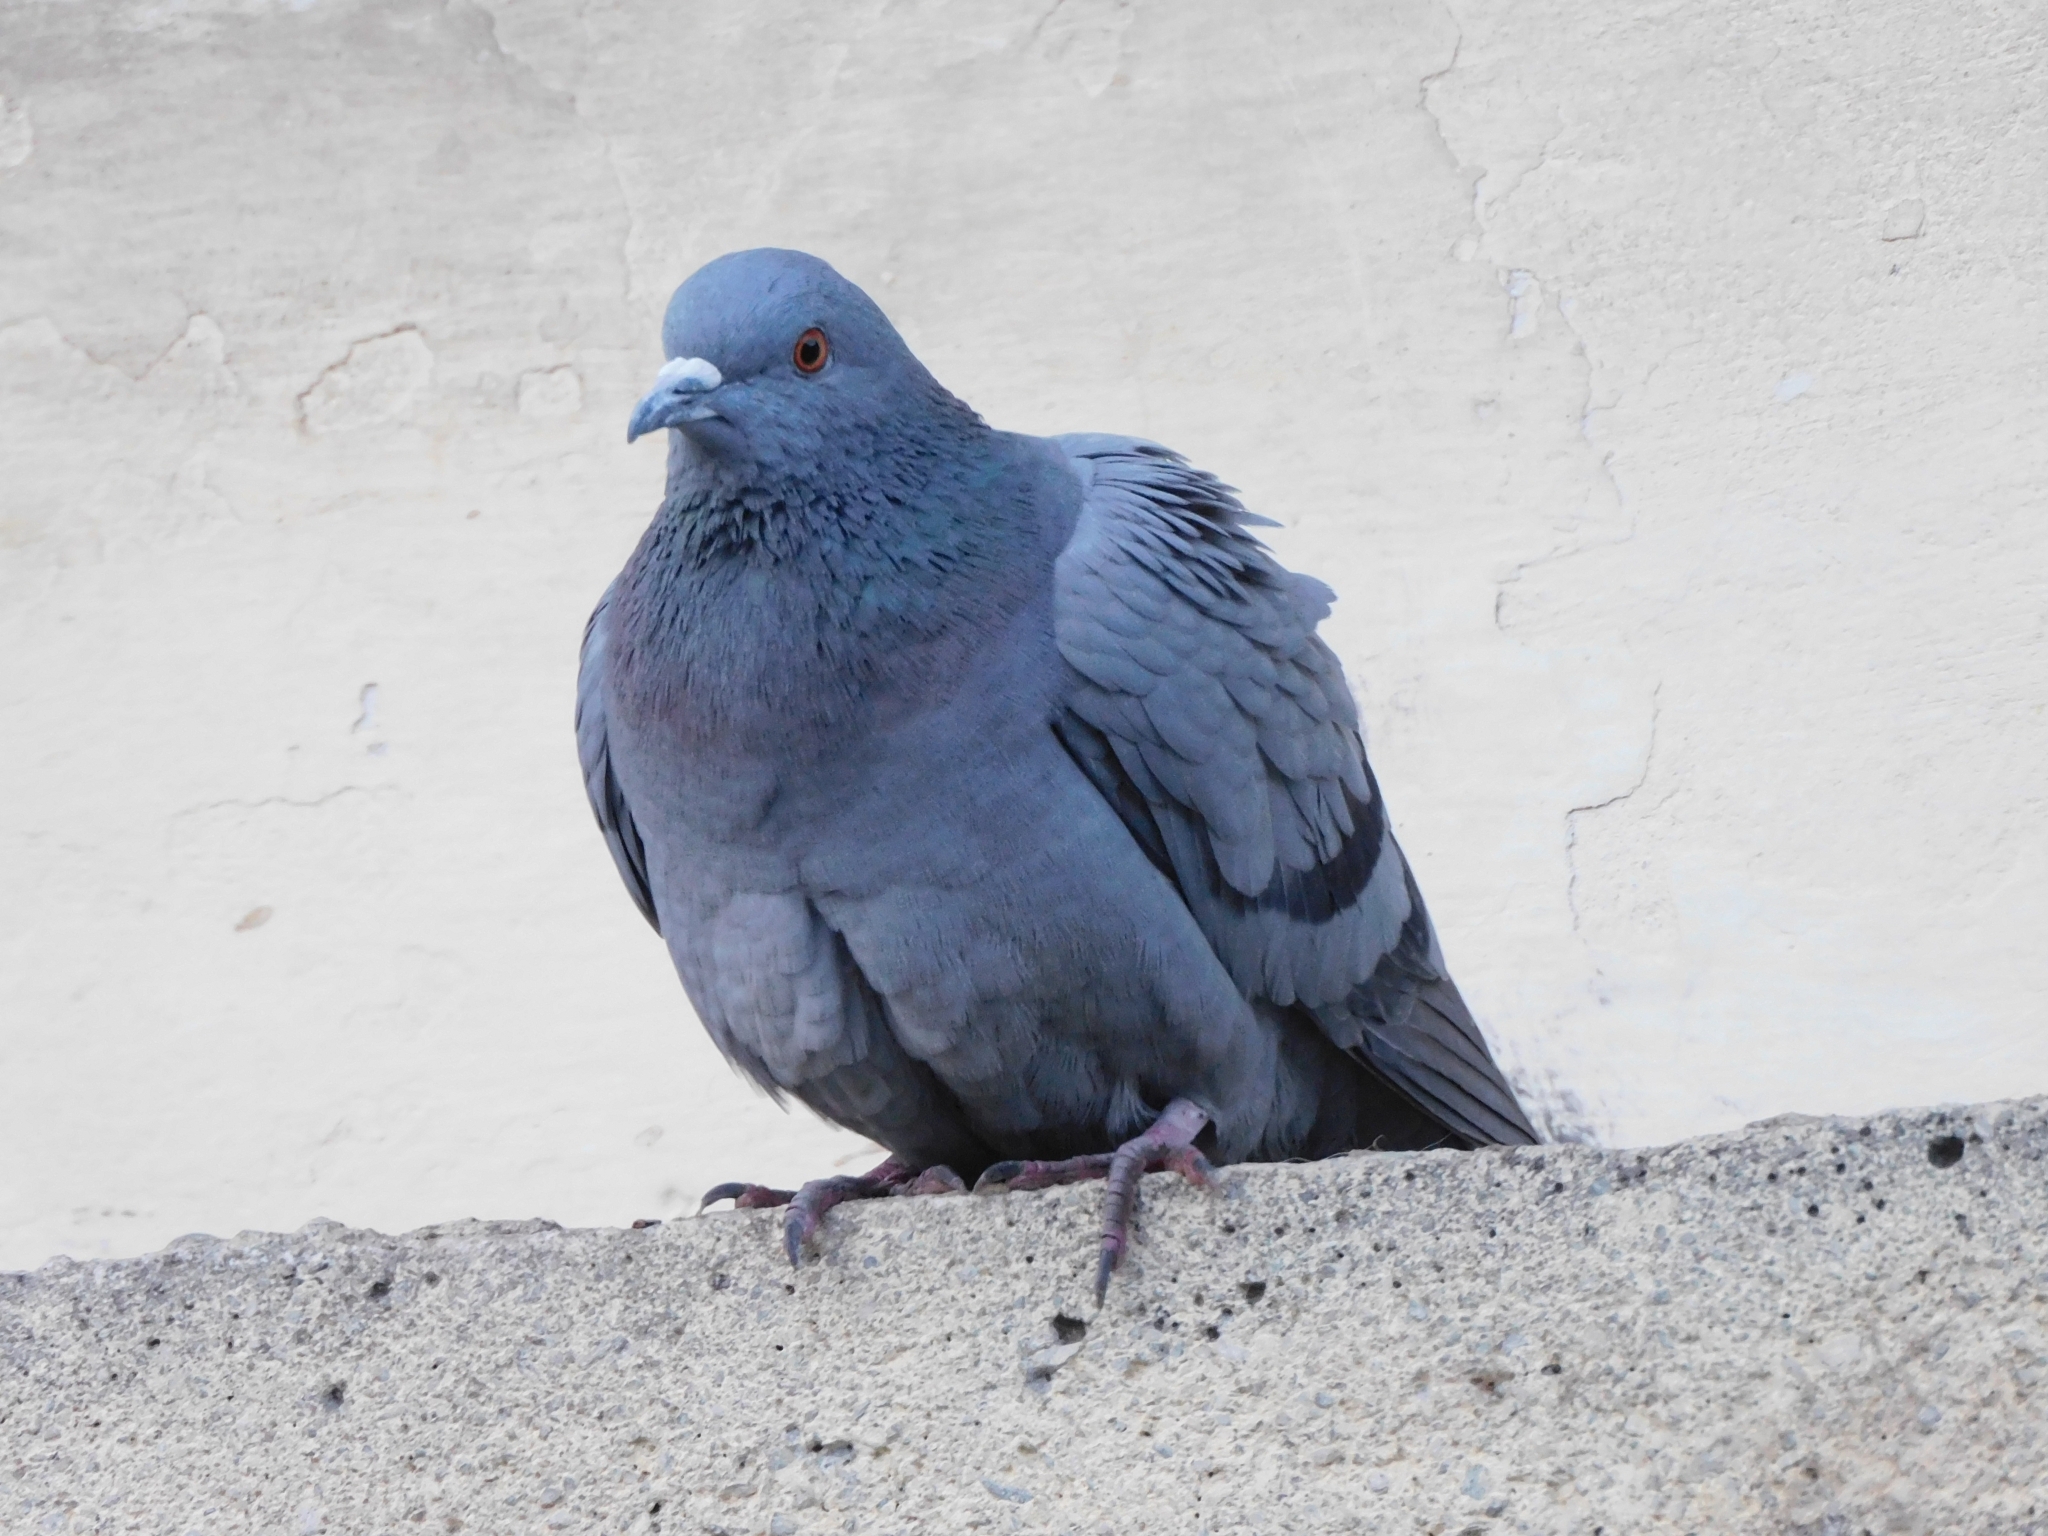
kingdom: Animalia
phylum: Chordata
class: Aves
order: Columbiformes
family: Columbidae
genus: Columba
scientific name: Columba livia
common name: Rock pigeon
